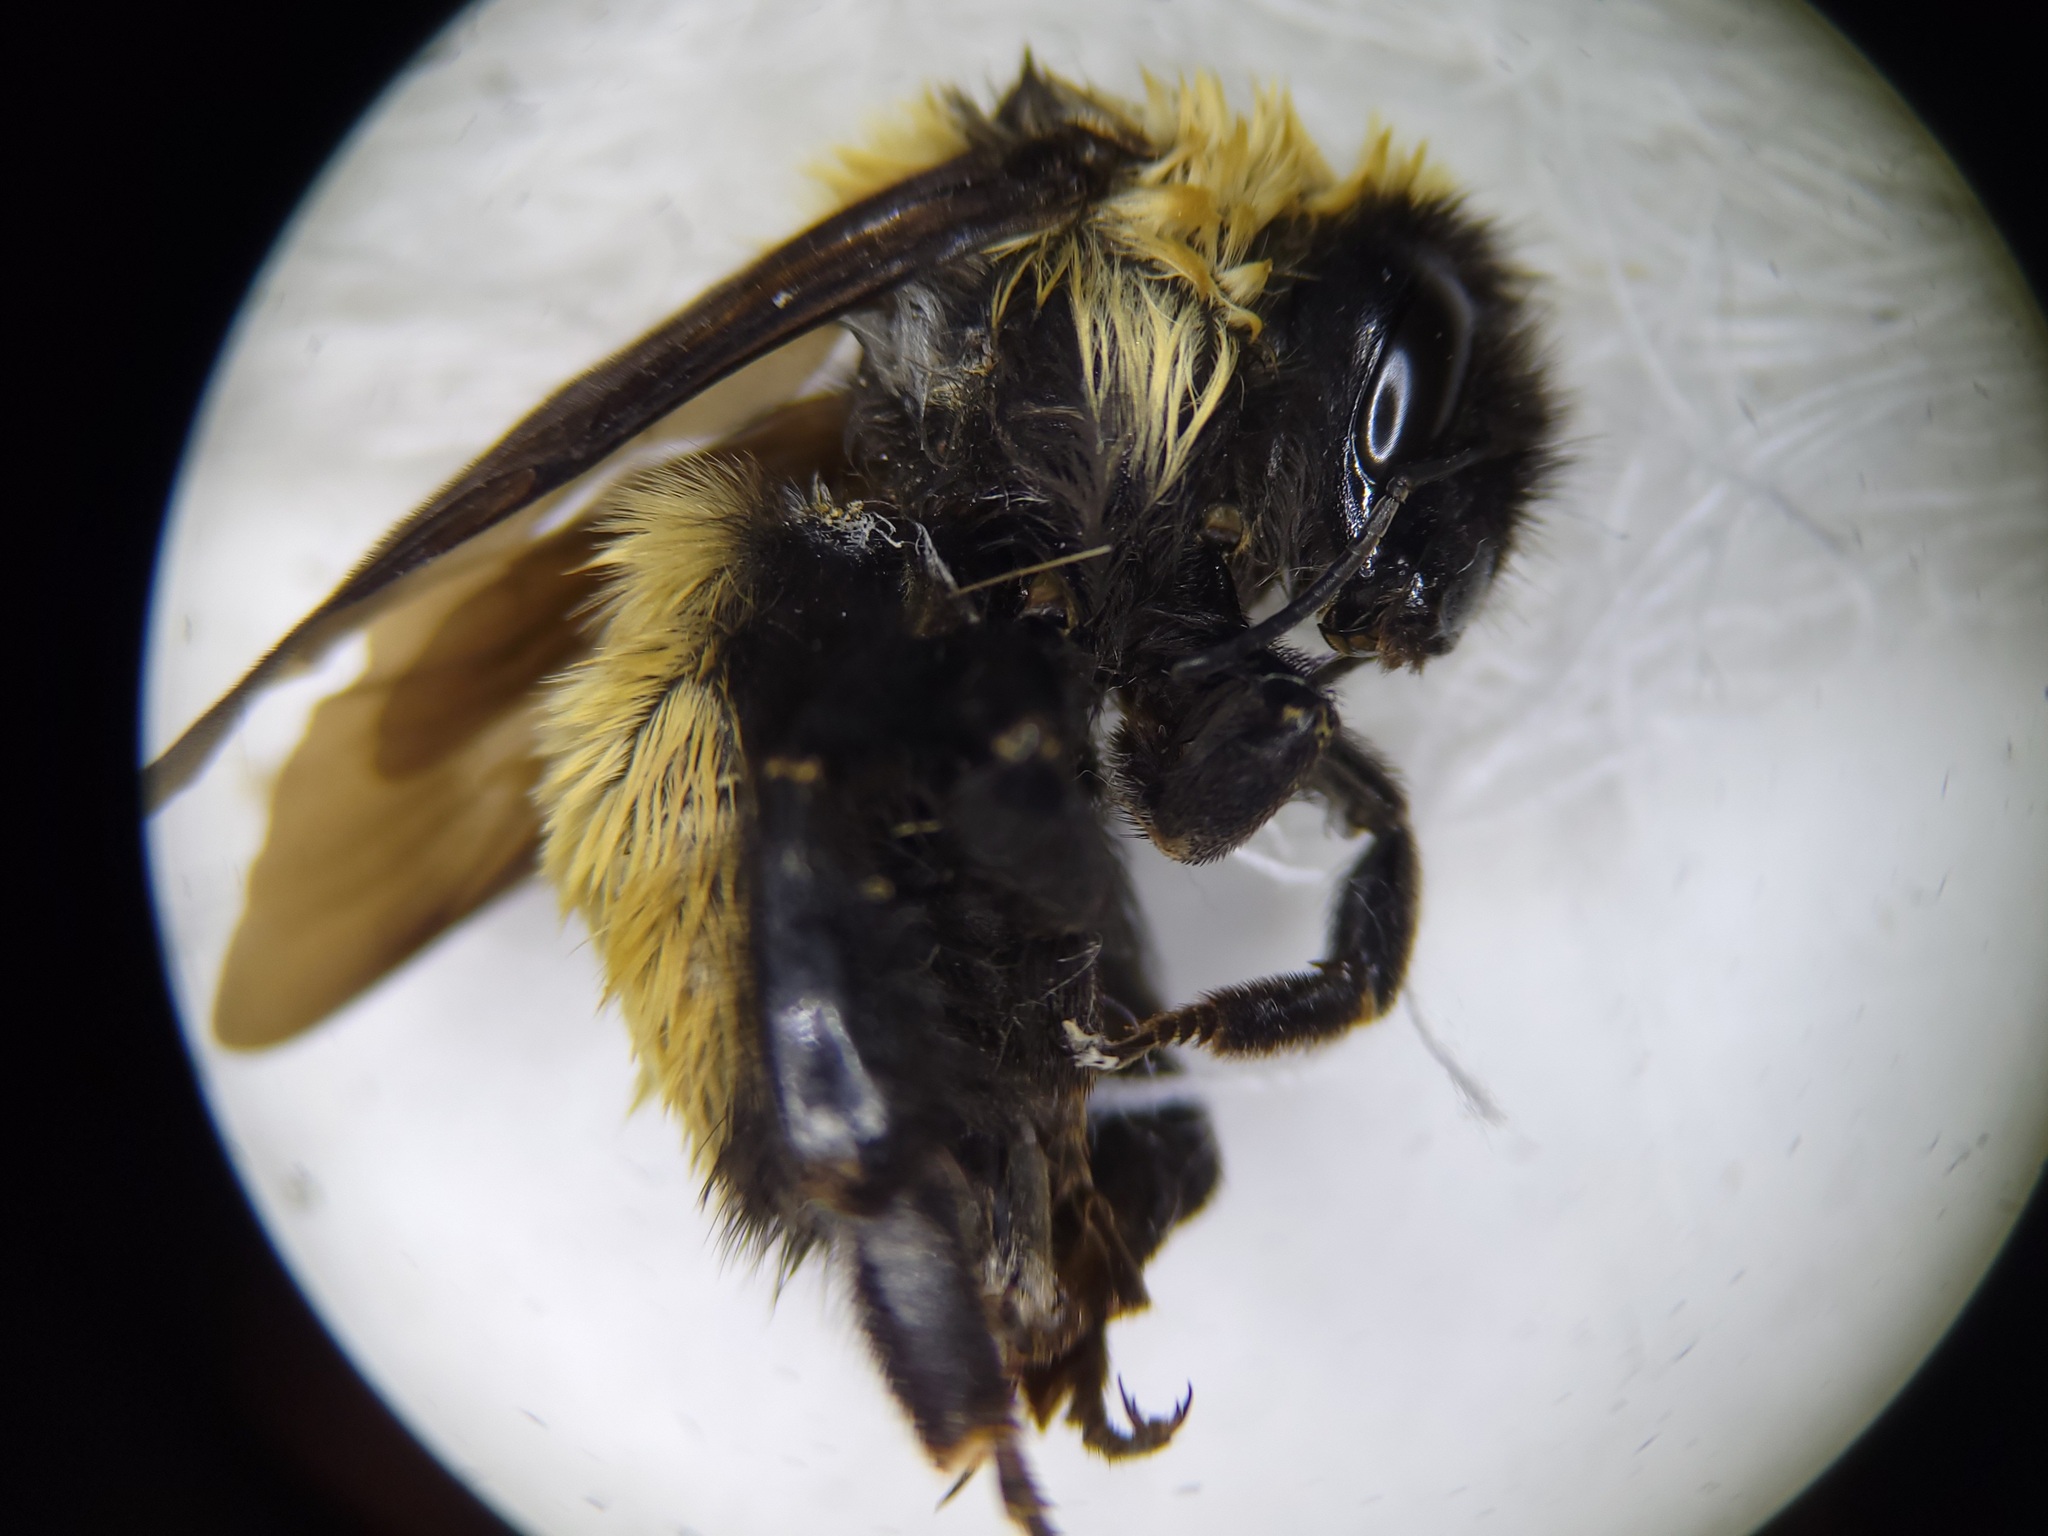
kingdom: Animalia
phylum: Arthropoda
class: Insecta
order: Hymenoptera
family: Apidae
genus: Bombus
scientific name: Bombus fervidus
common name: Yellow bumble bee
